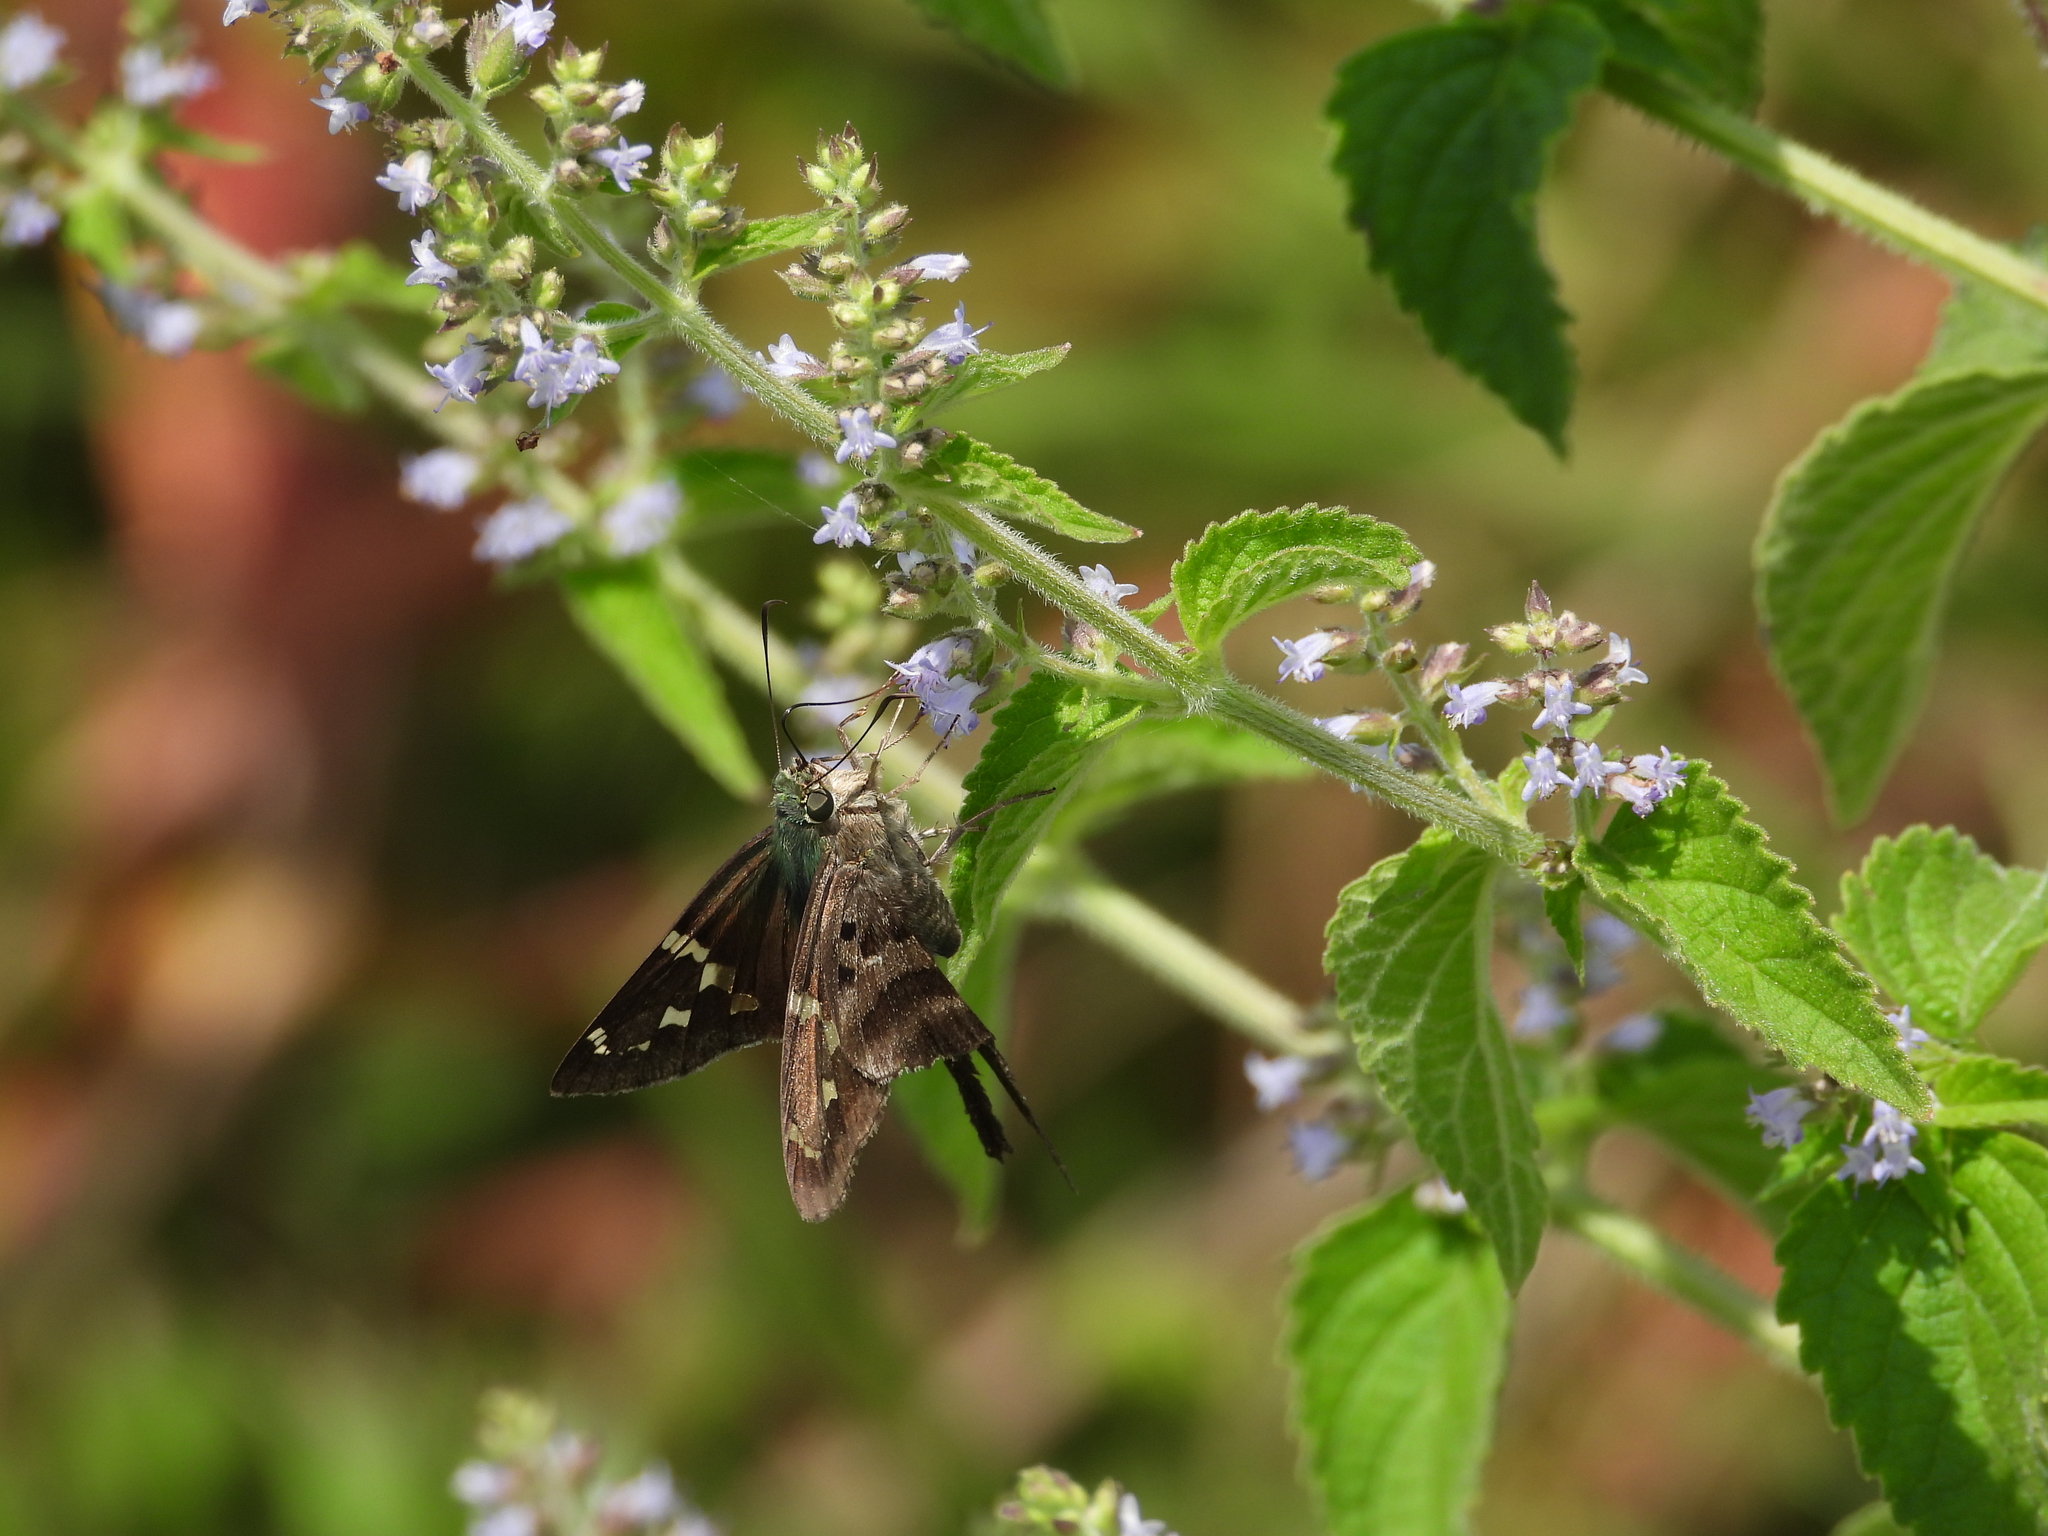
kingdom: Animalia
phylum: Arthropoda
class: Insecta
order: Lepidoptera
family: Hesperiidae
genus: Urbanus
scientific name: Urbanus proteus
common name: Long-tailed skipper
